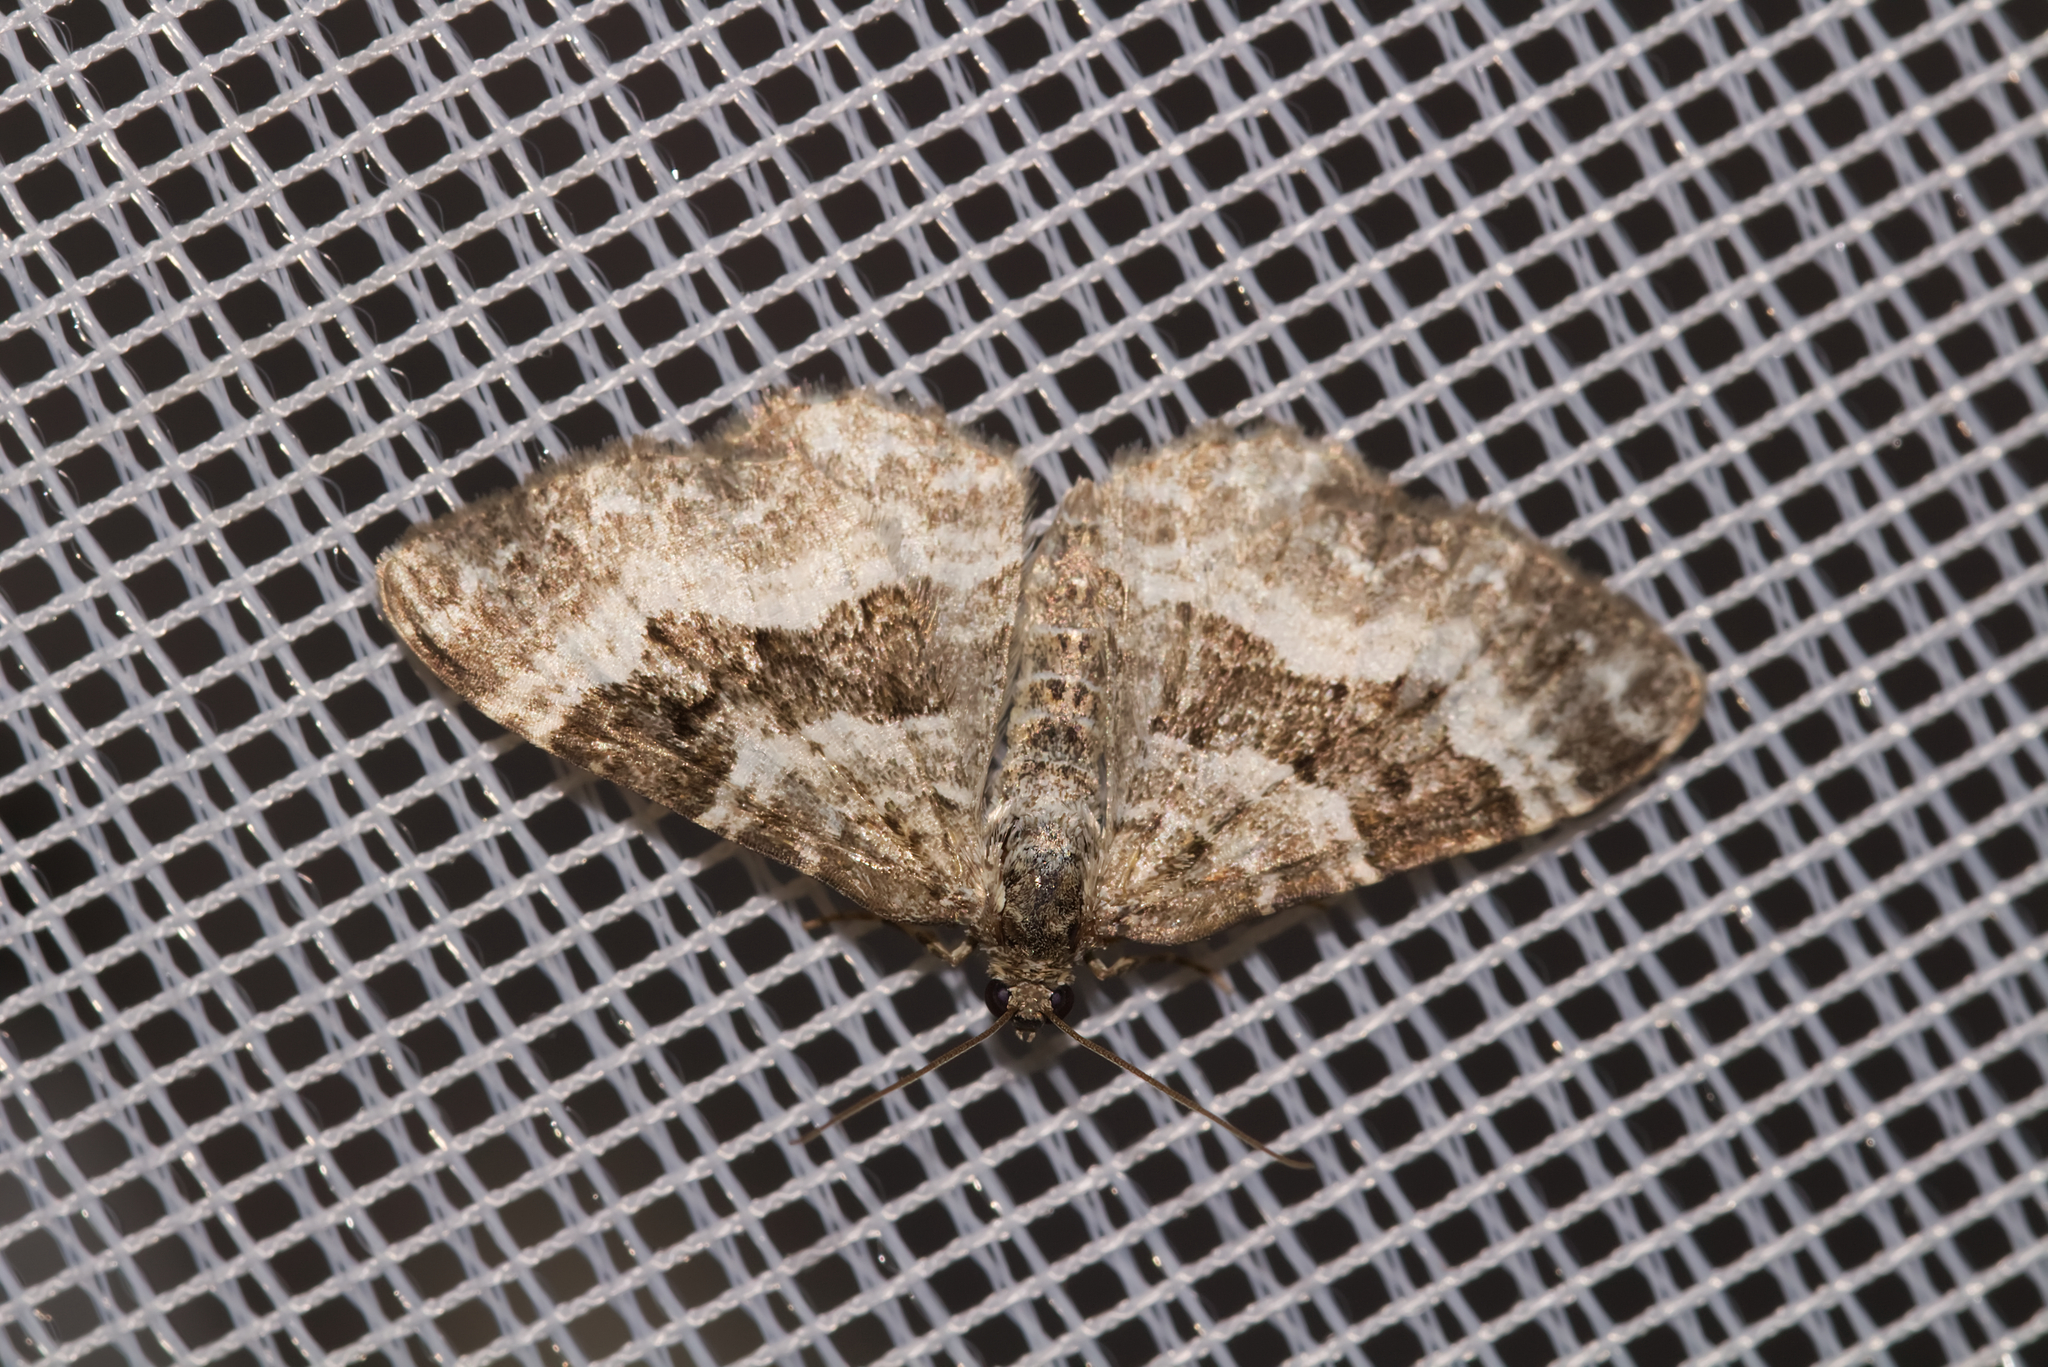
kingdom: Animalia
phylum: Arthropoda
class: Insecta
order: Lepidoptera
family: Geometridae
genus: Epirrhoe
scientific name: Epirrhoe alternata
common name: Common carpet
